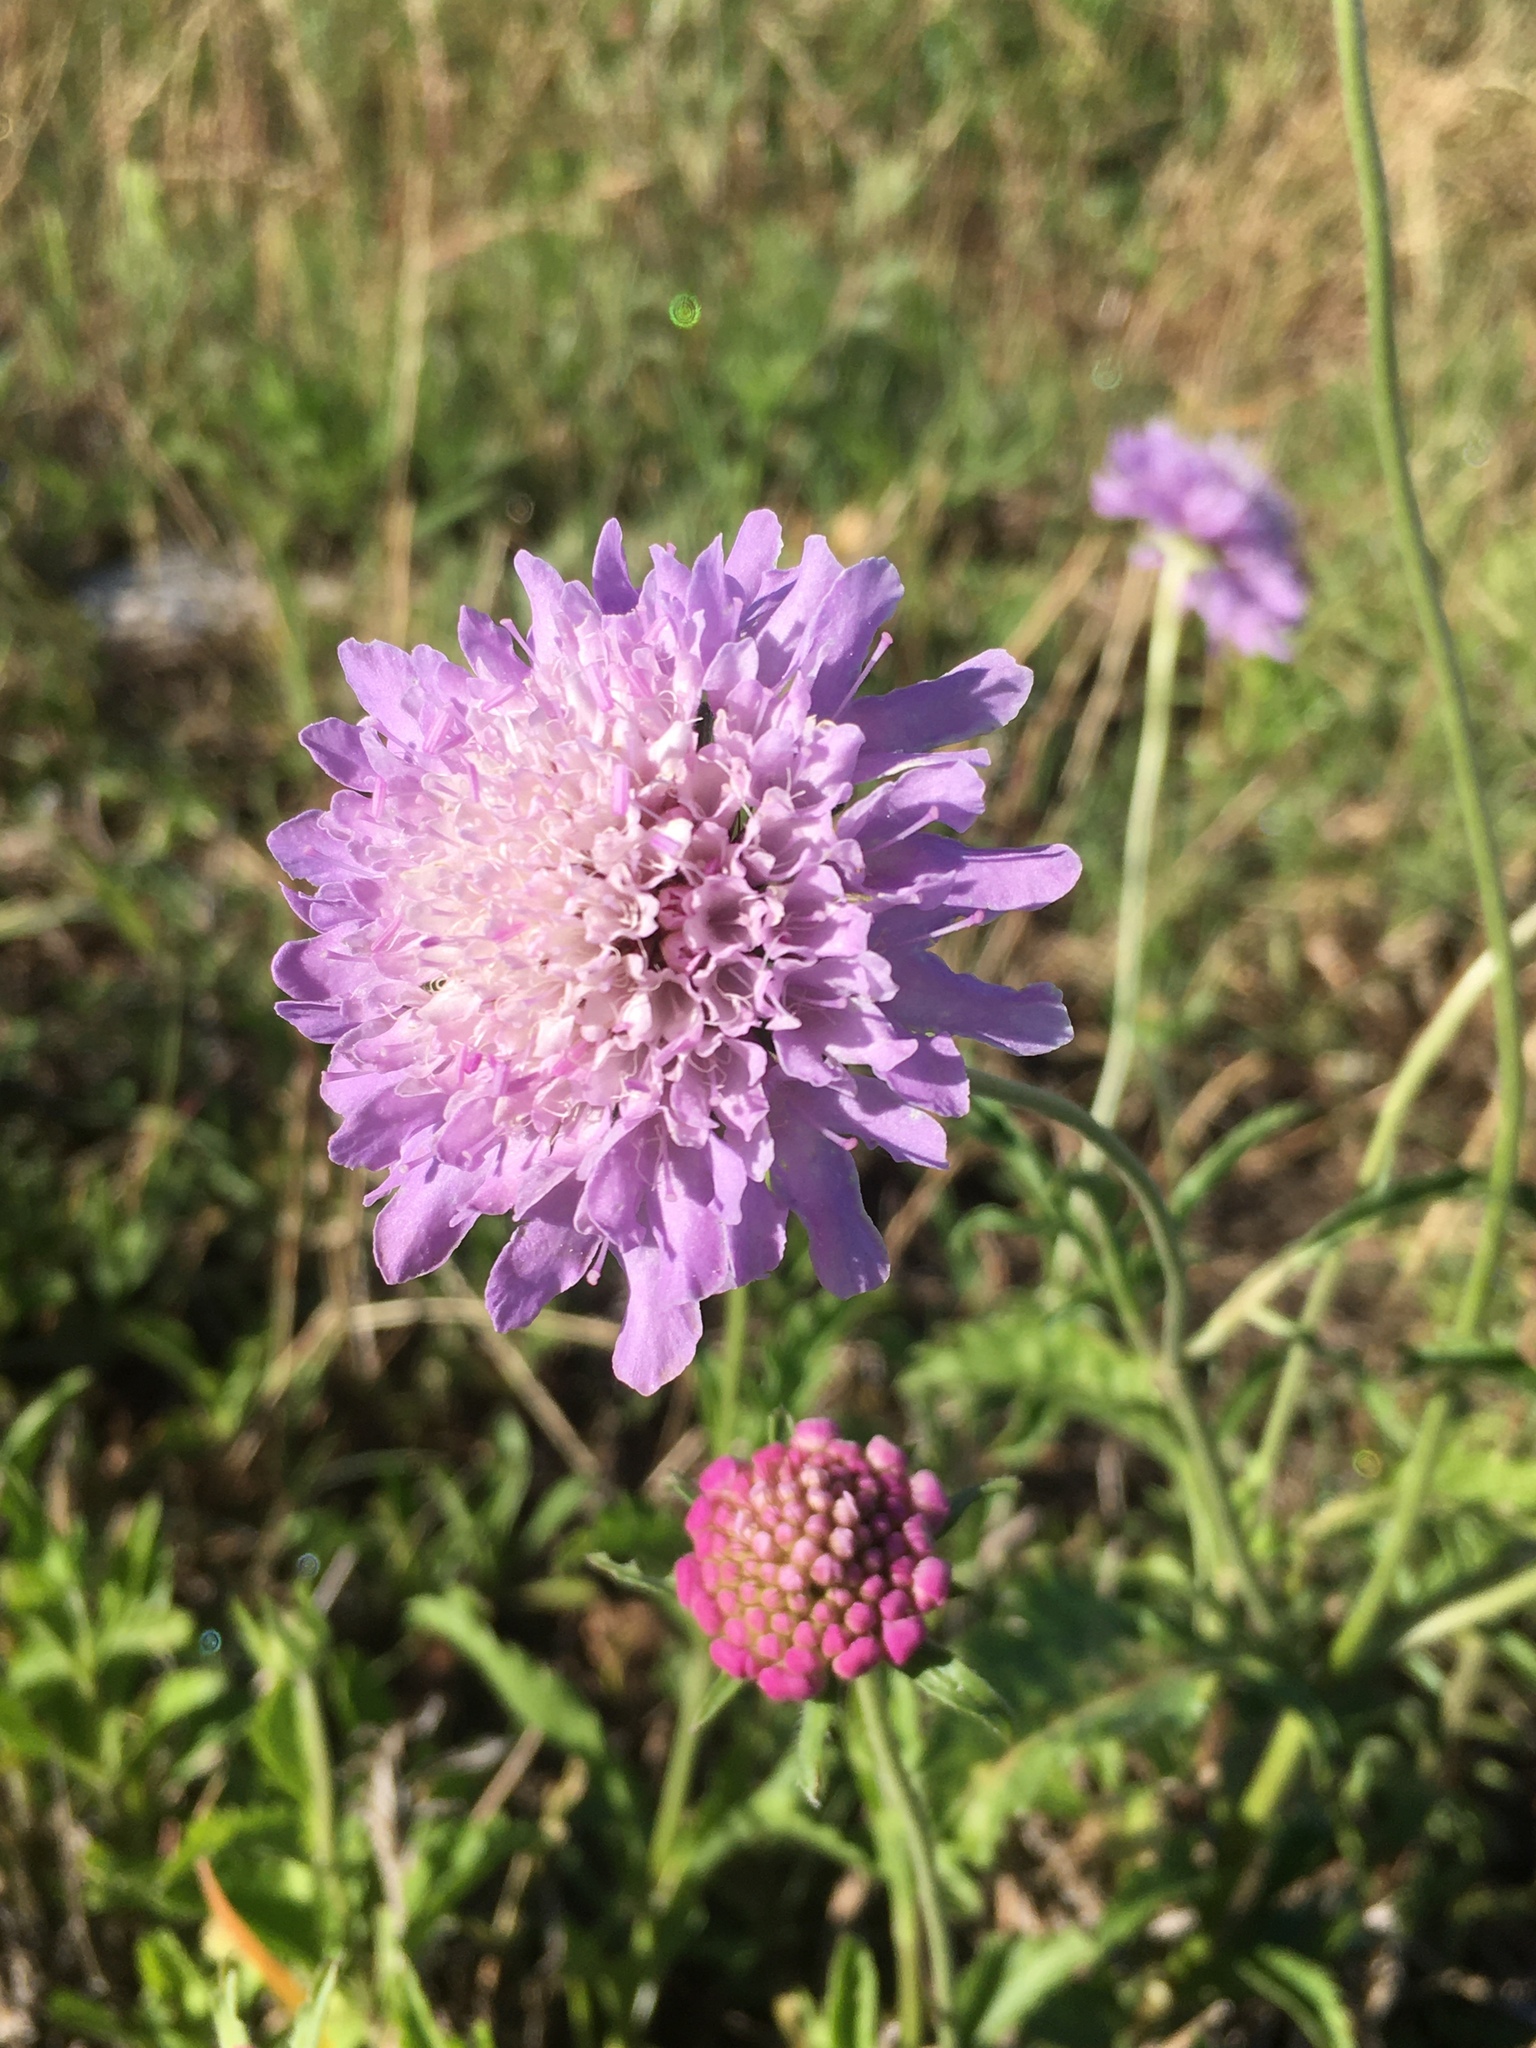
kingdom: Plantae
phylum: Tracheophyta
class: Magnoliopsida
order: Dipsacales
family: Caprifoliaceae
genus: Sixalix
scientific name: Sixalix atropurpurea
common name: Sweet scabious
